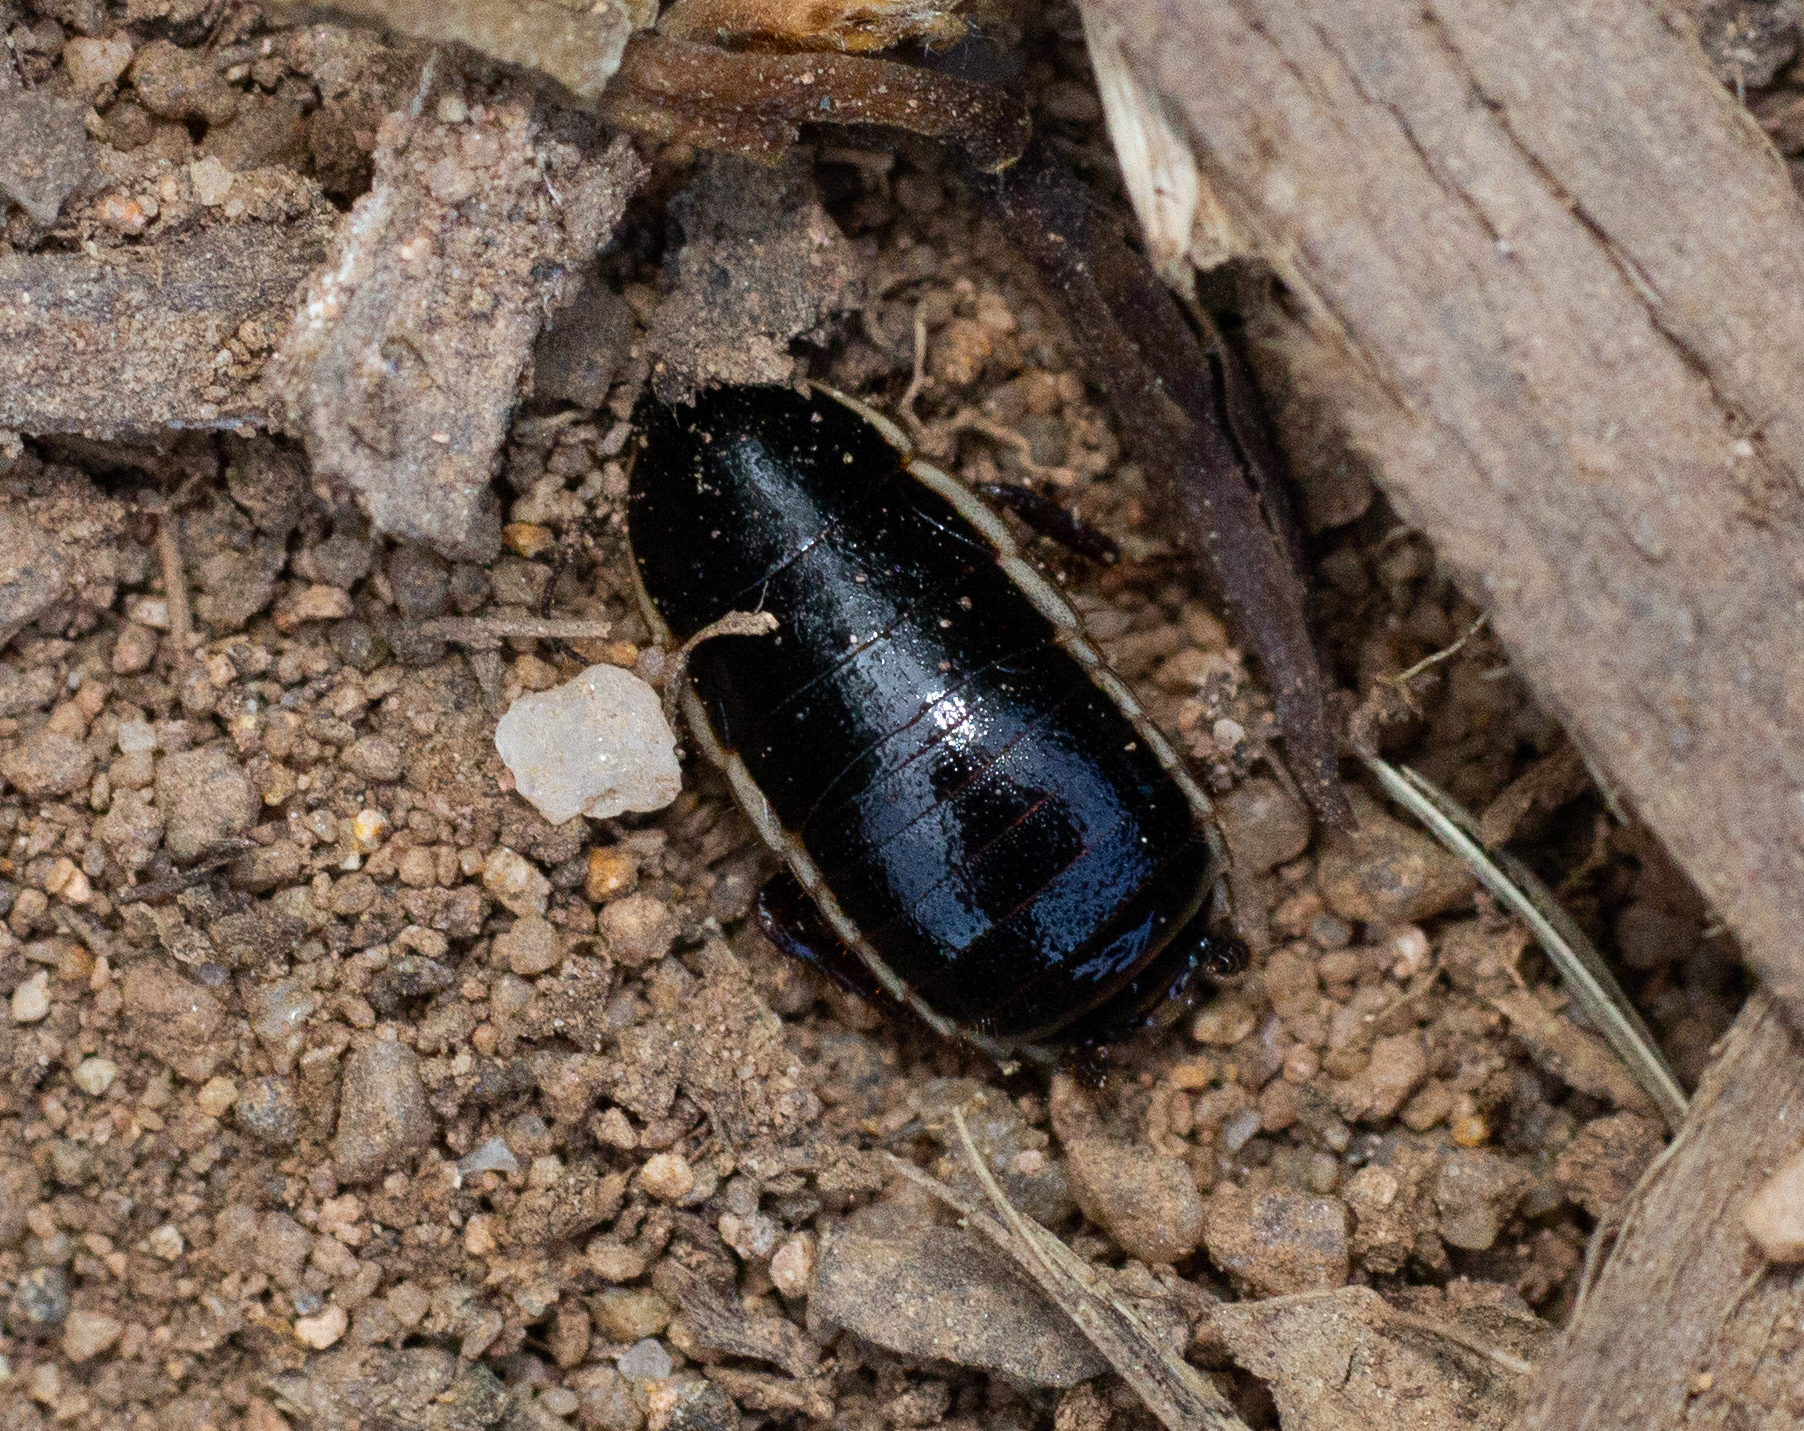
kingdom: Animalia
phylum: Arthropoda
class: Insecta
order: Blattodea
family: Ectobiidae
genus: Loboptera
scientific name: Loboptera decipiens
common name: Lobe-winged cockroach
